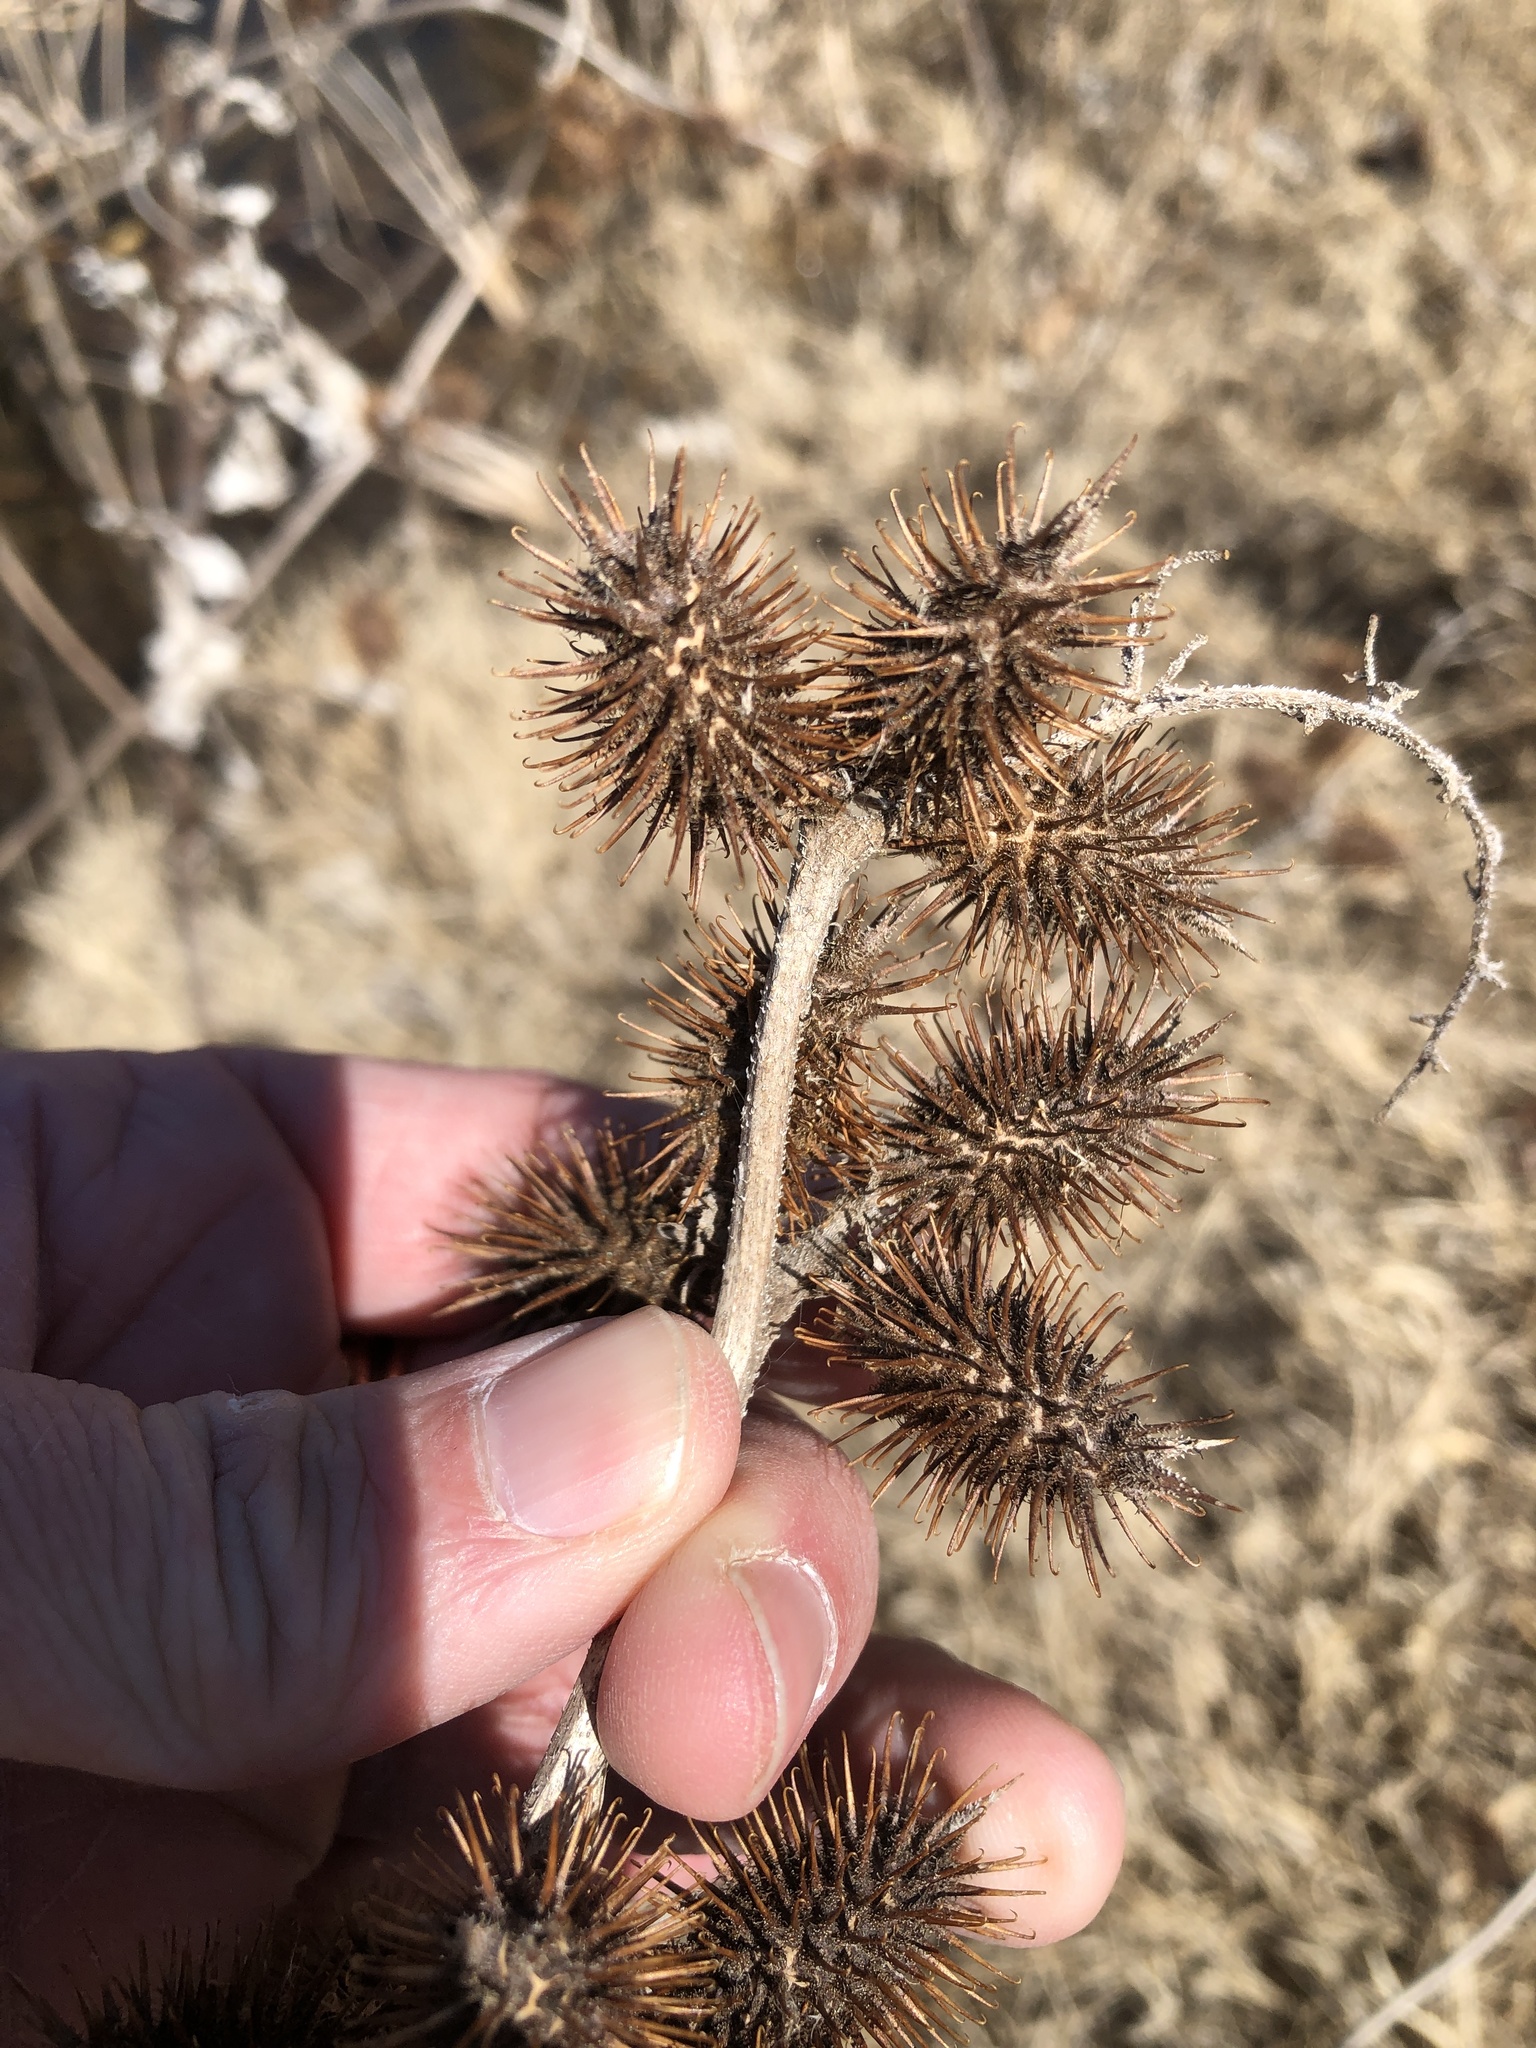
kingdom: Plantae
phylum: Tracheophyta
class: Magnoliopsida
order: Asterales
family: Asteraceae
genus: Xanthium
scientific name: Xanthium strumarium
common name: Rough cocklebur
